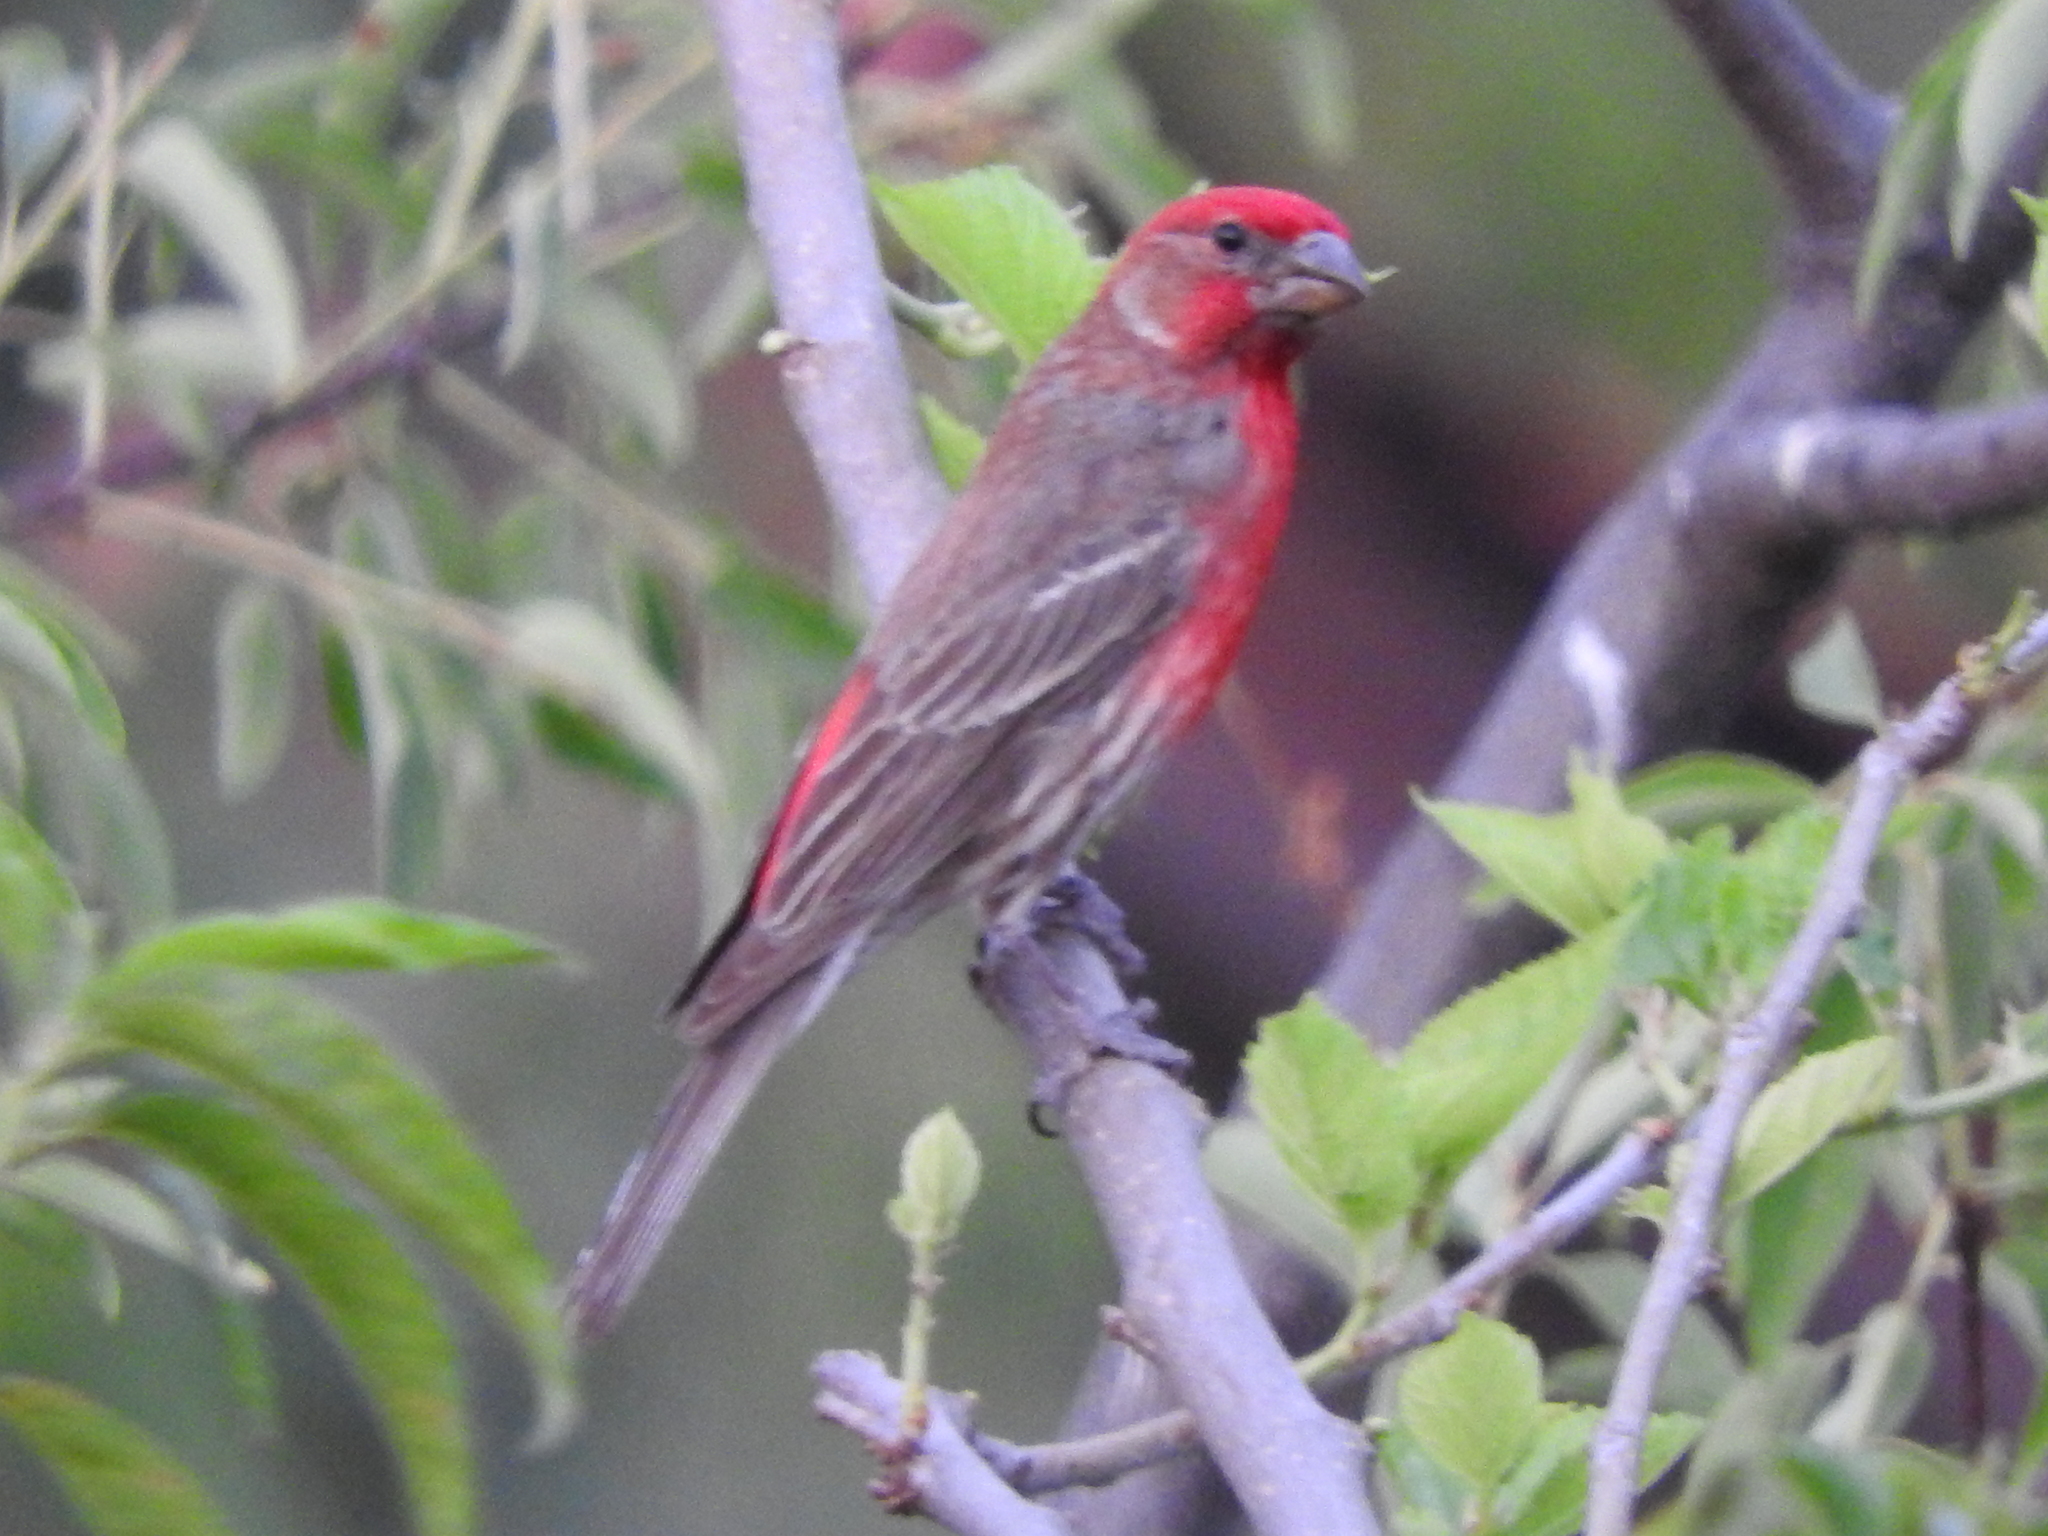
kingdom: Animalia
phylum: Chordata
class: Aves
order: Passeriformes
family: Fringillidae
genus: Haemorhous
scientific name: Haemorhous mexicanus
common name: House finch
